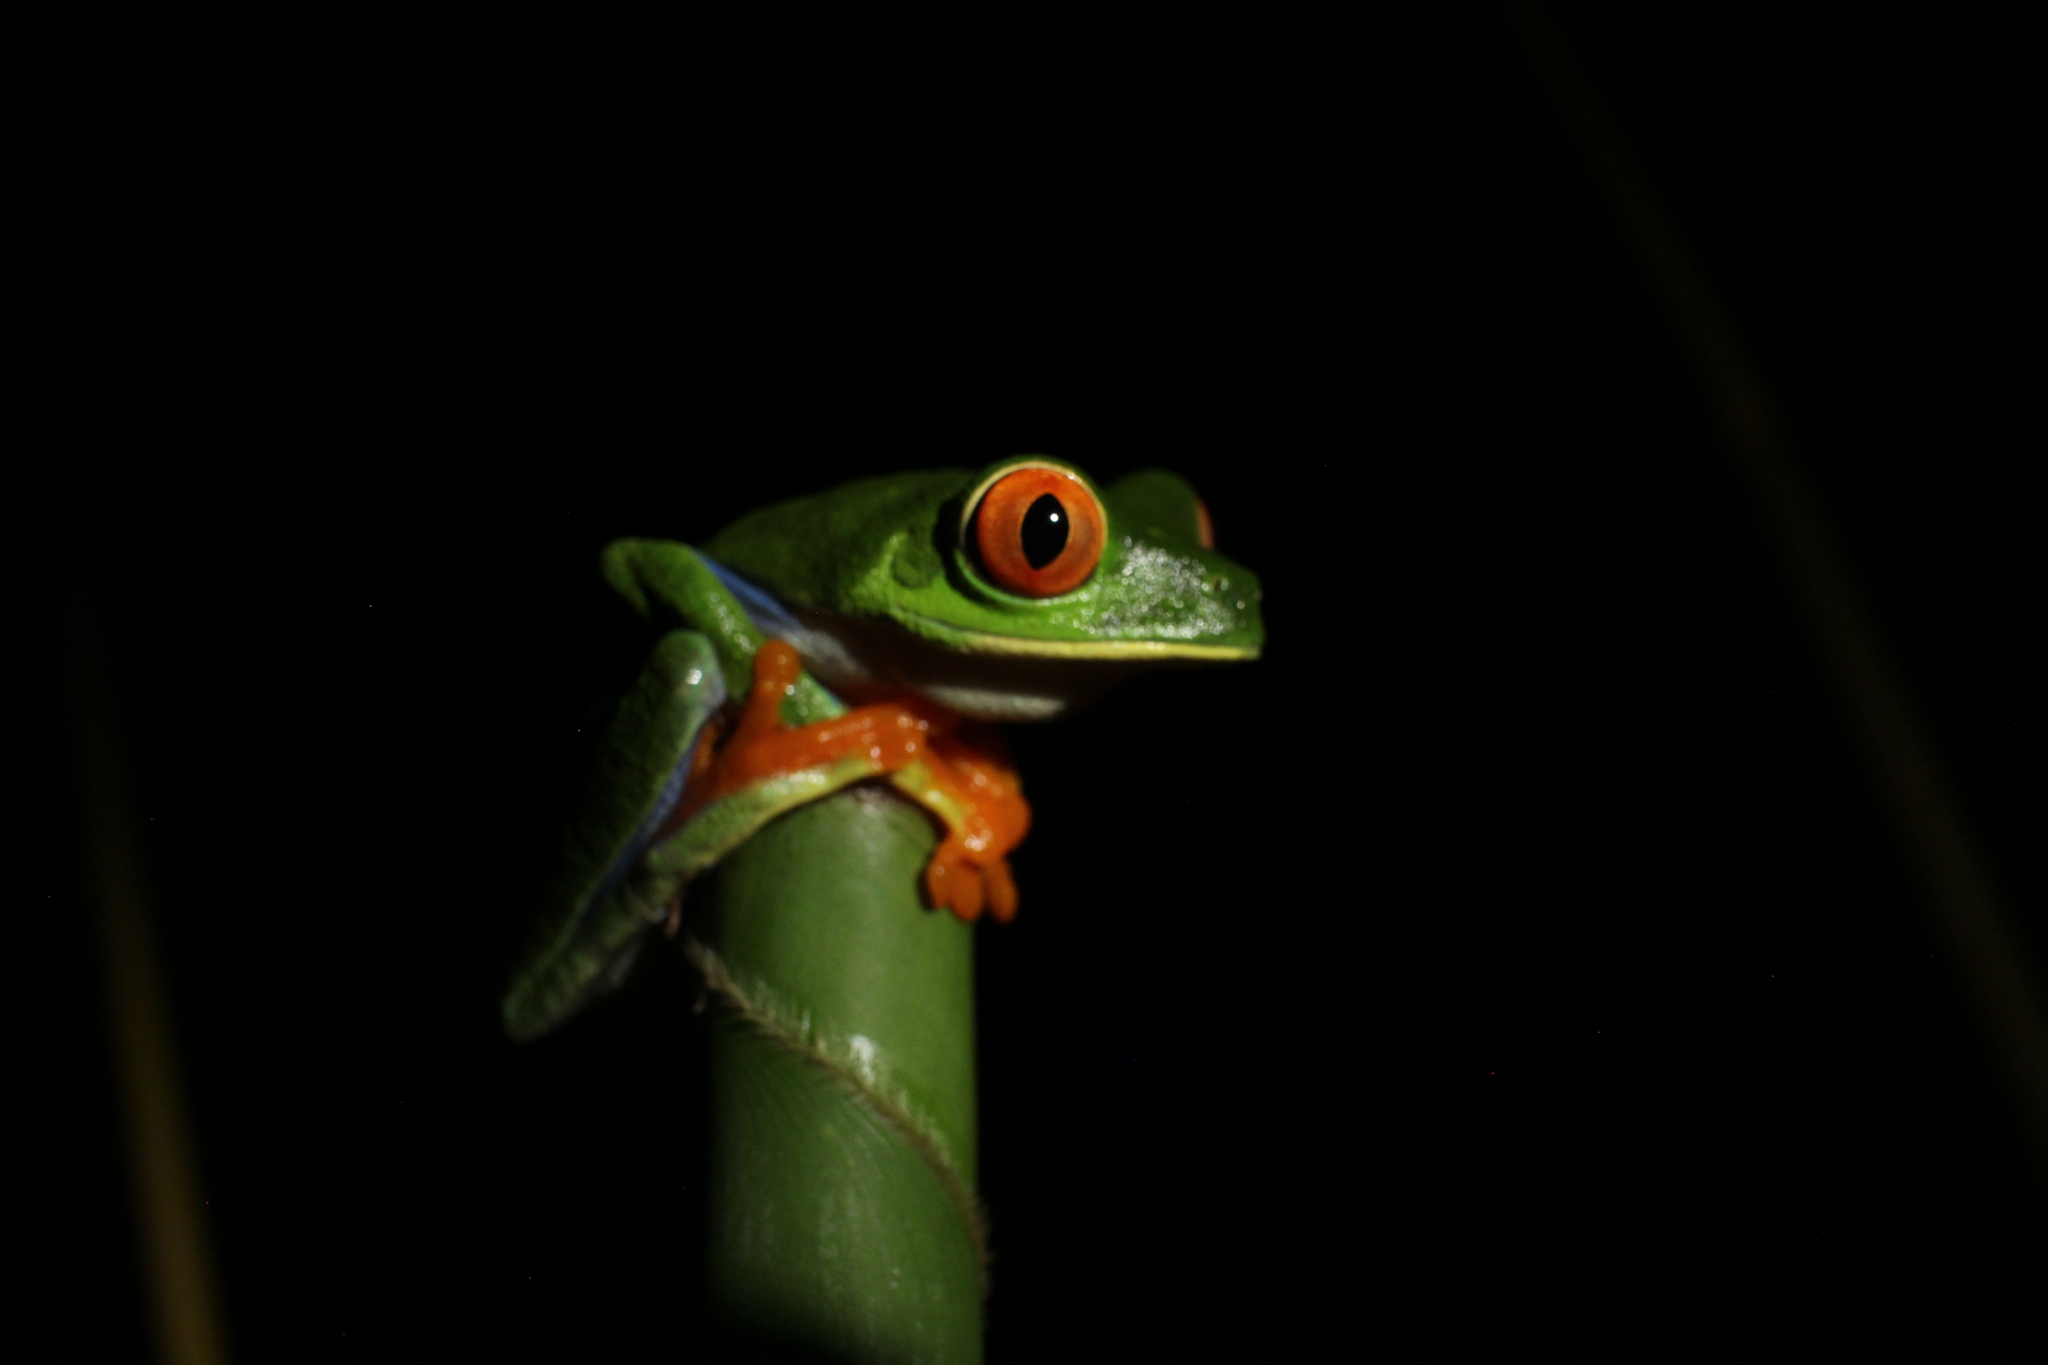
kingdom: Animalia
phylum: Chordata
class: Amphibia
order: Anura
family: Phyllomedusidae
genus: Agalychnis
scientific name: Agalychnis callidryas
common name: Red-eyed treefrog
